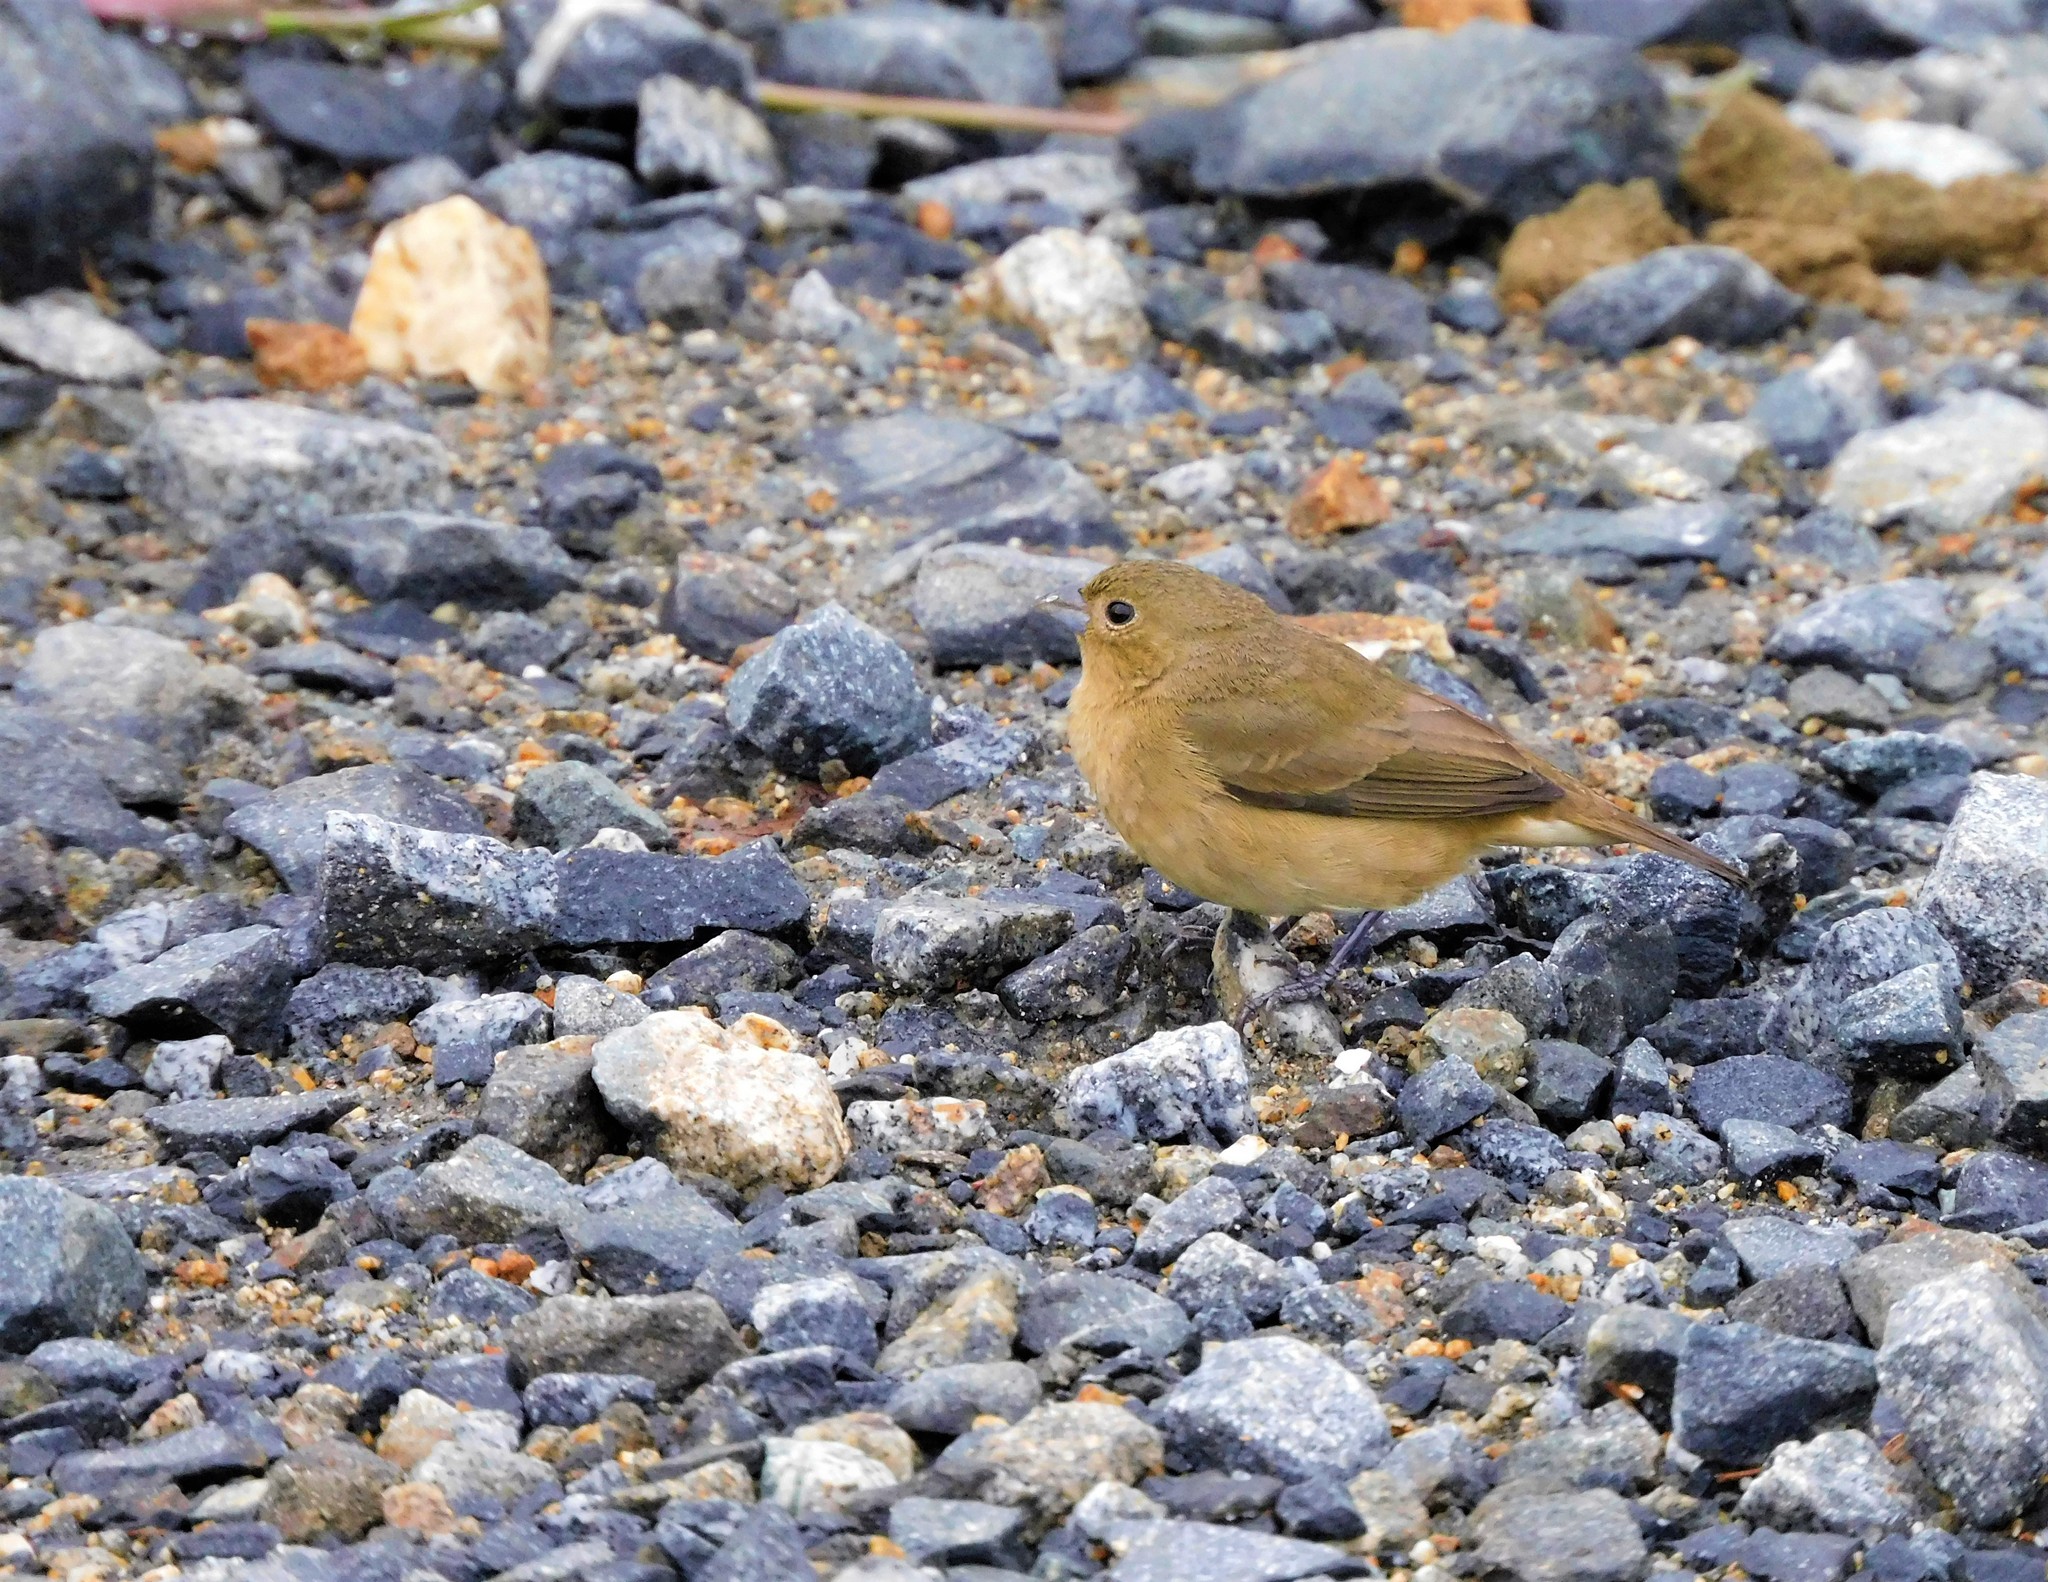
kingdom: Animalia
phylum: Chordata
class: Aves
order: Passeriformes
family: Thraupidae
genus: Sporophila
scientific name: Sporophila nigricollis
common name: Yellow-bellied seedeater
